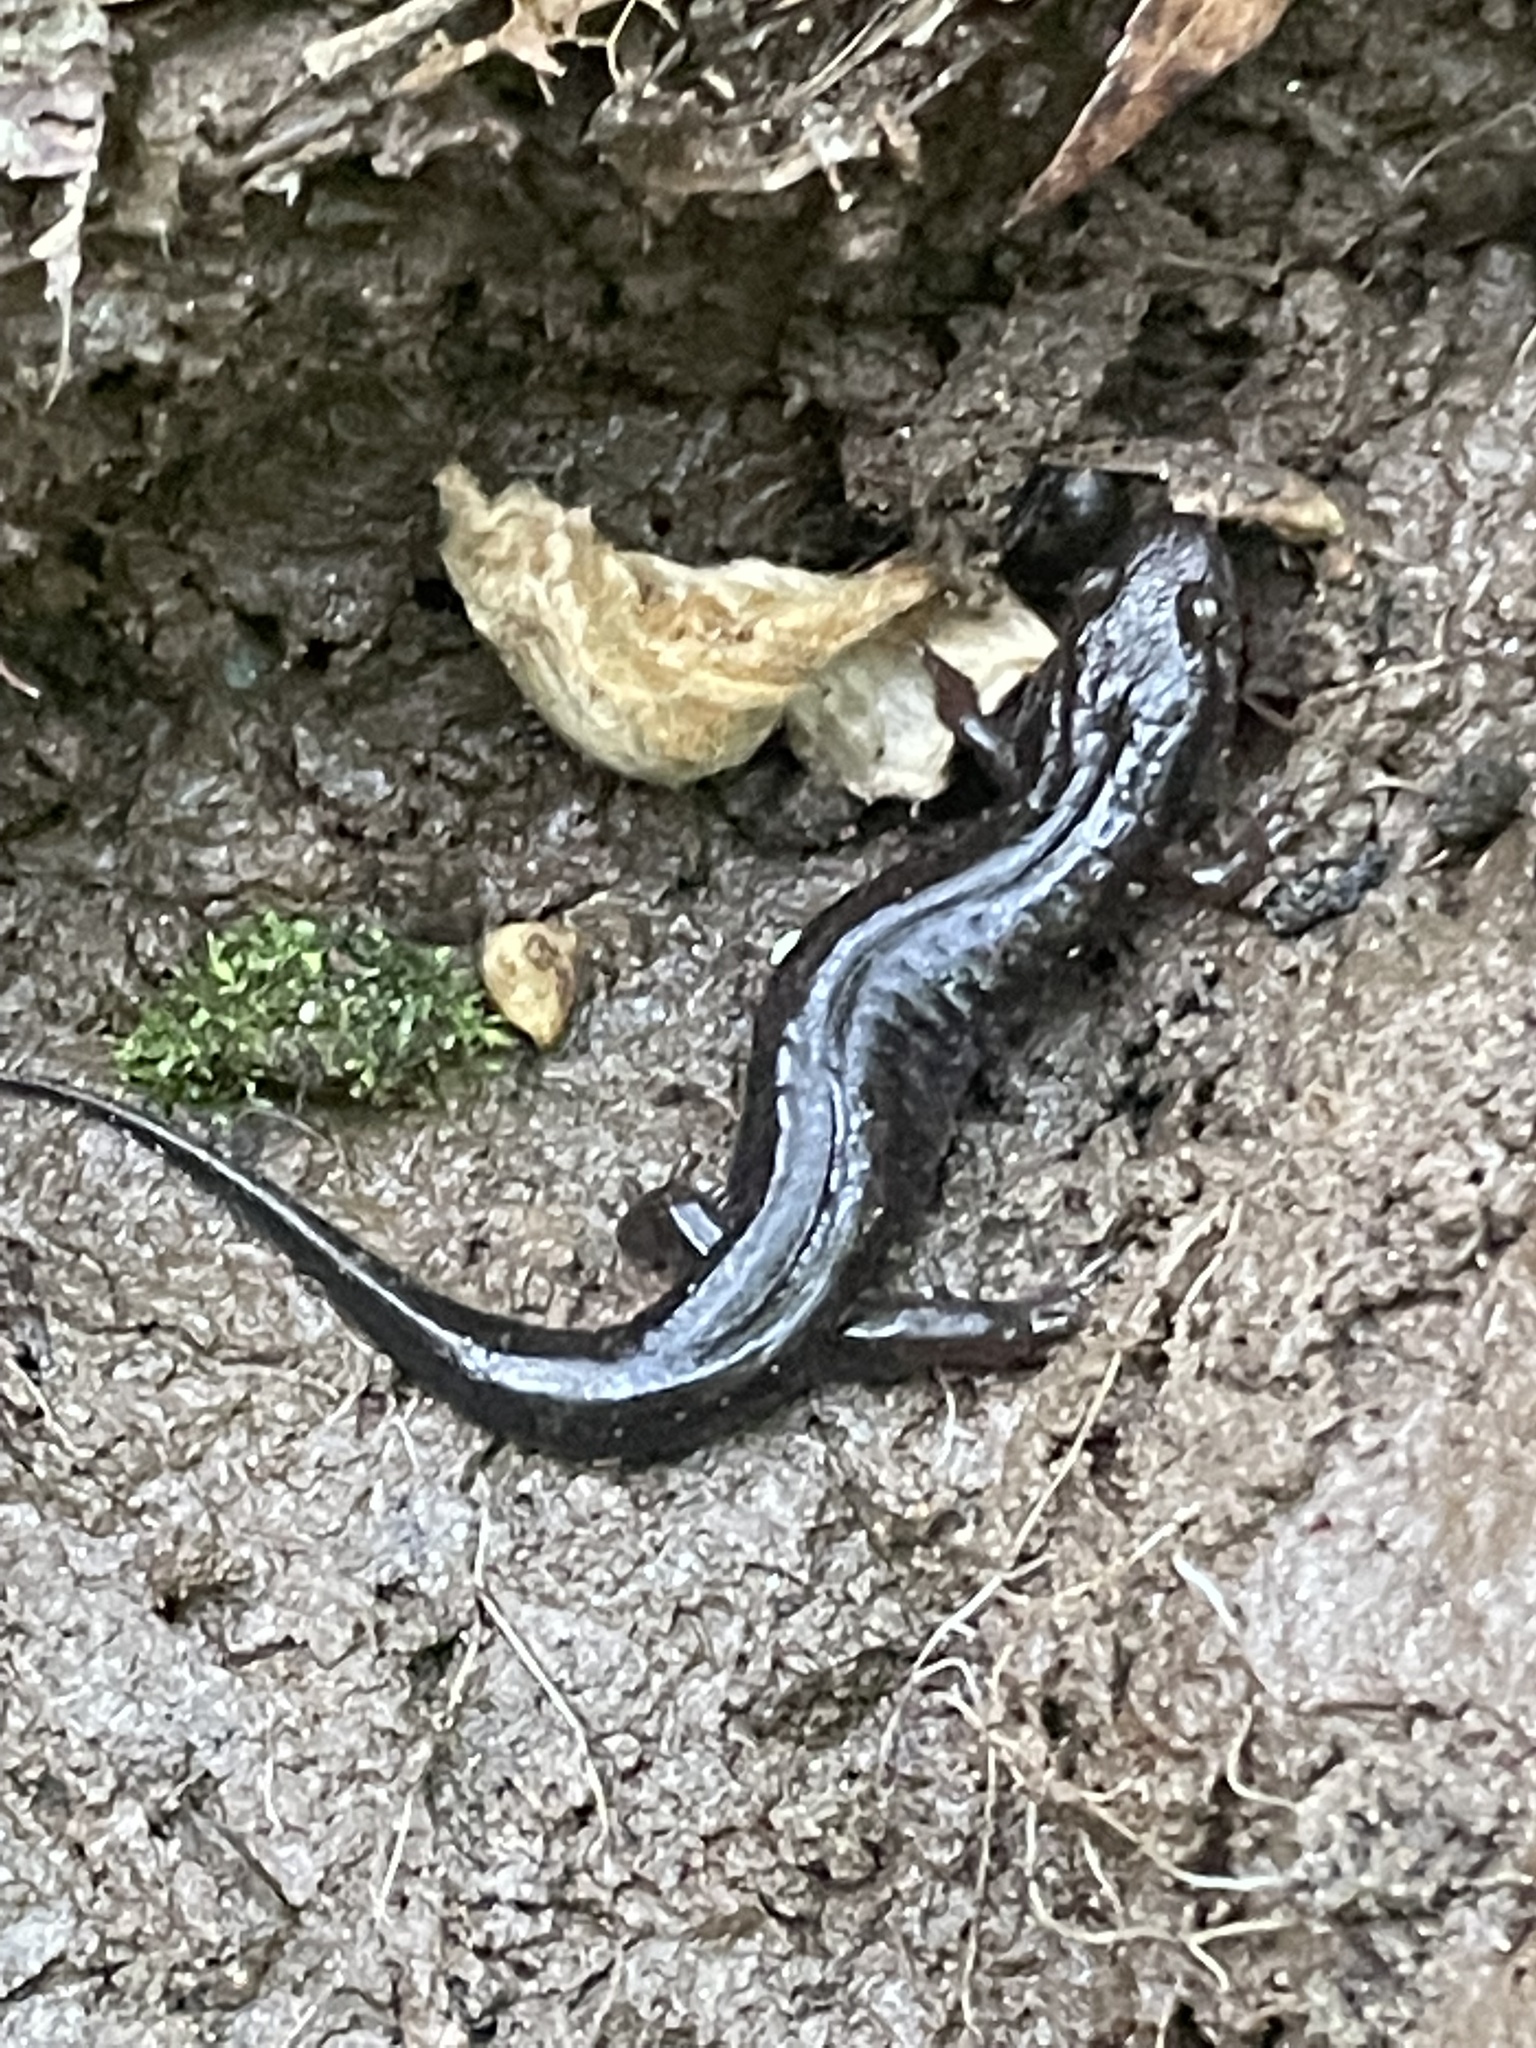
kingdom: Animalia
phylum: Chordata
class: Amphibia
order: Caudata
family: Plethodontidae
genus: Desmognathus
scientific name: Desmognathus folkertsi
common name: Dwarf black-bellied salamander
